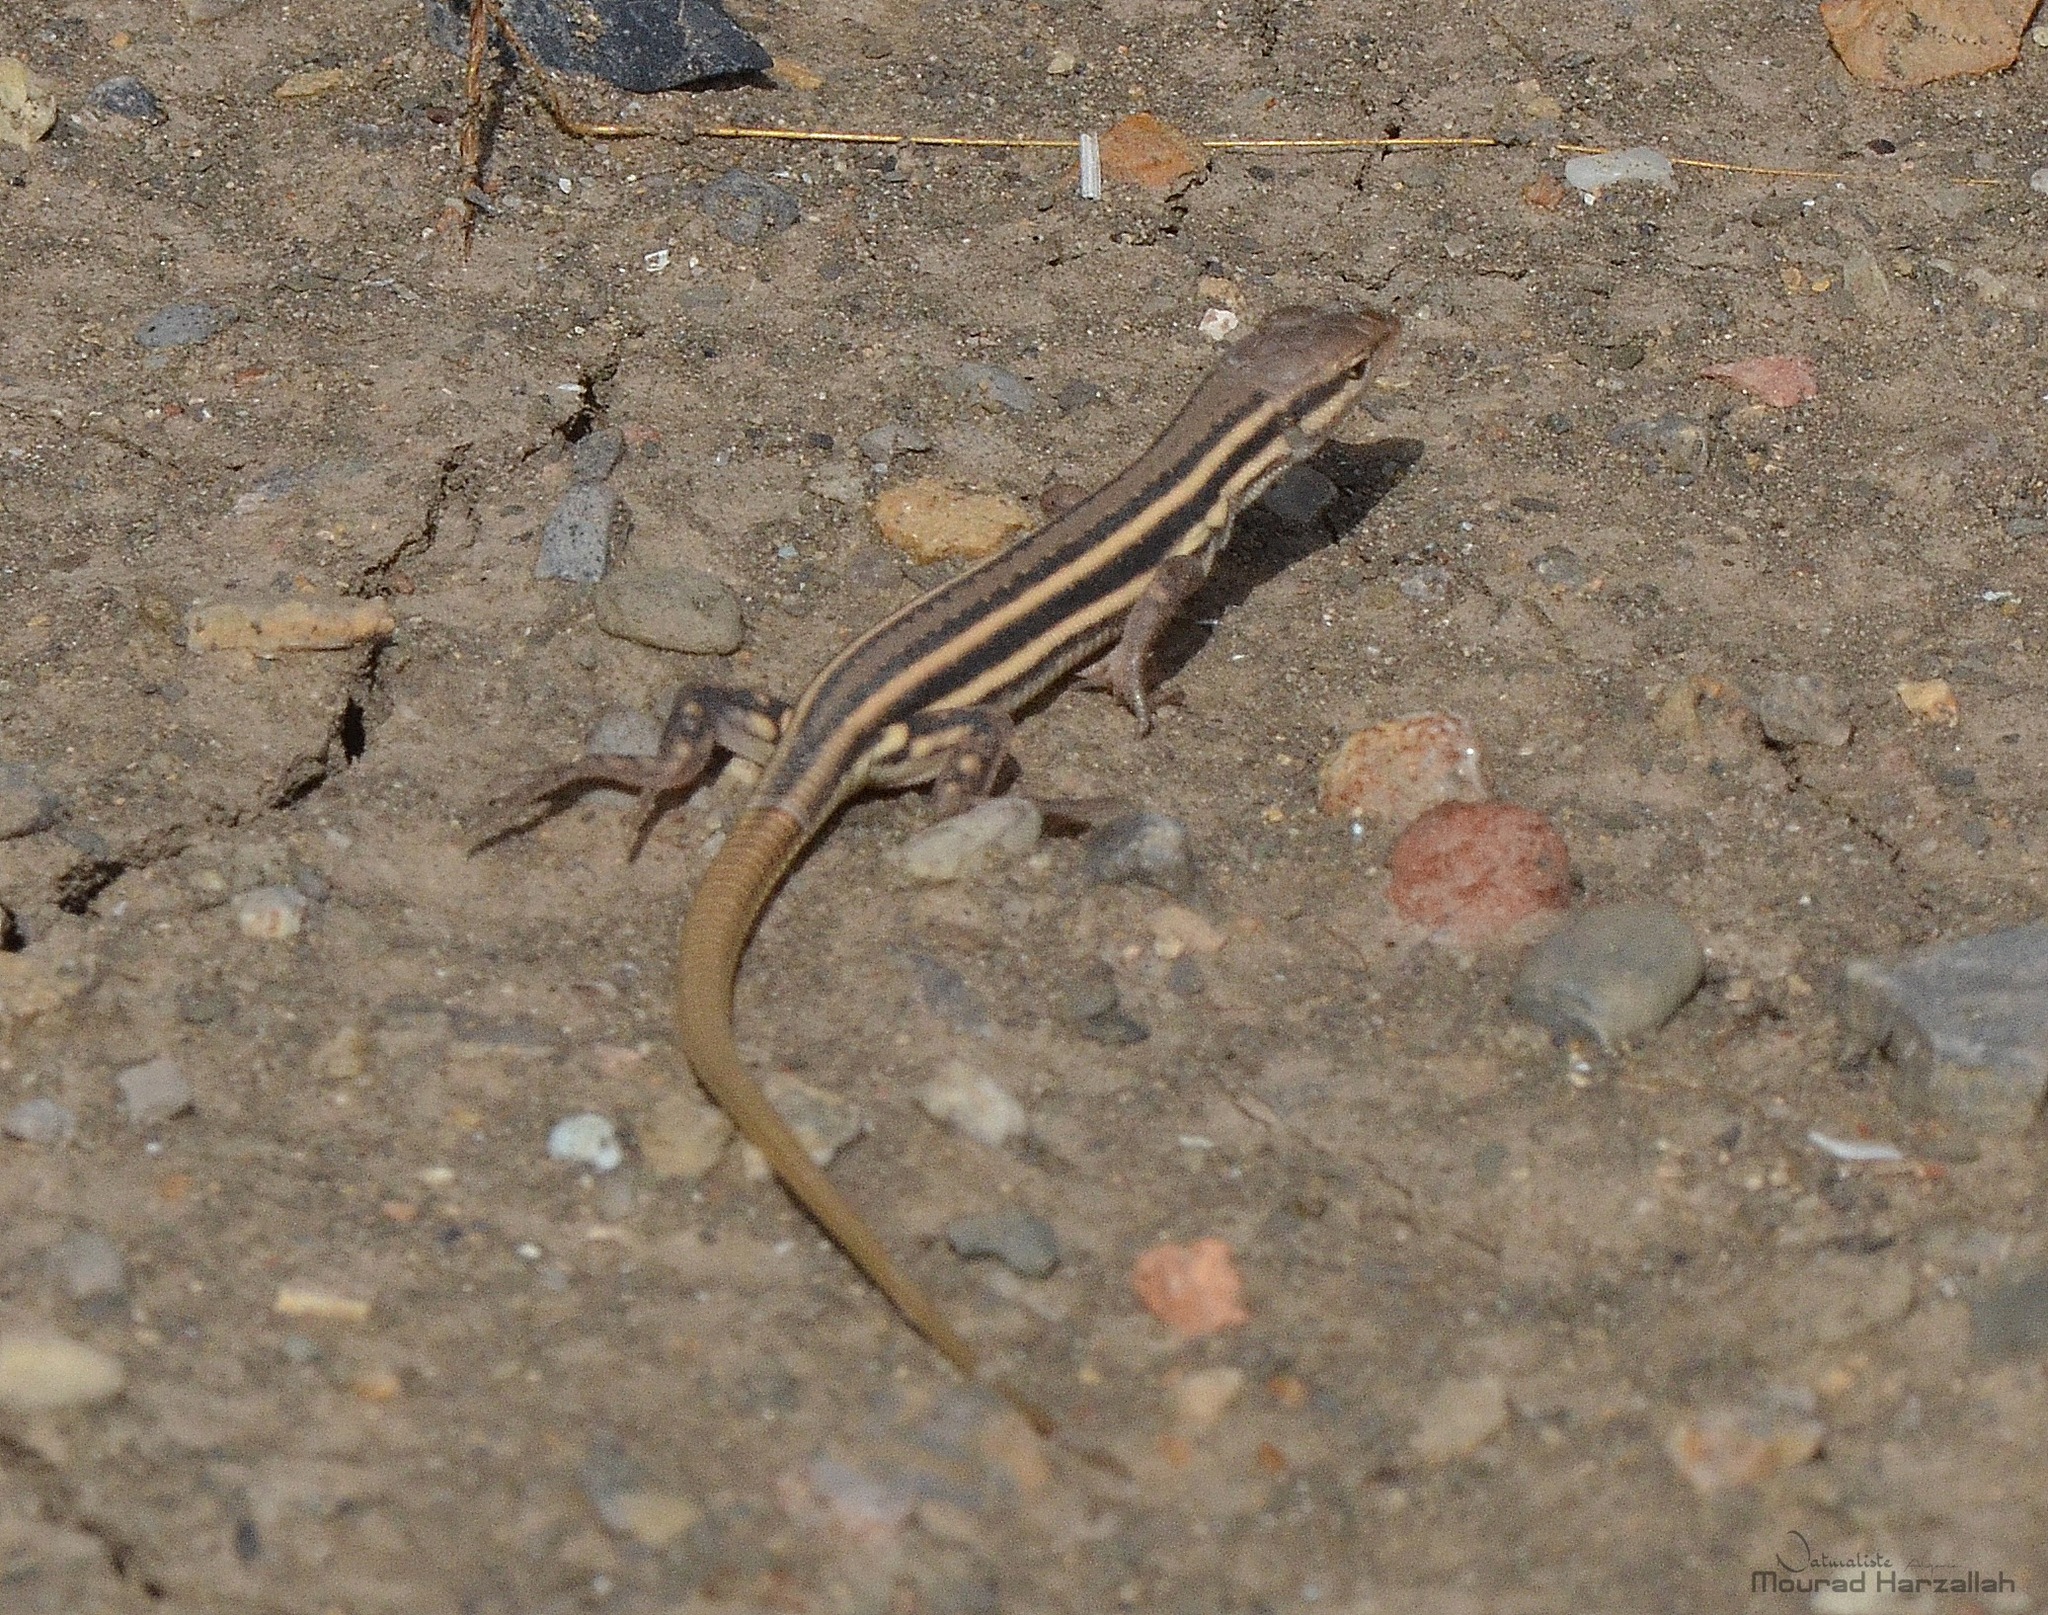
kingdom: Animalia
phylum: Chordata
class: Squamata
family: Lacertidae
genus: Mesalina
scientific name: Mesalina olivieri
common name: Oliver's desert racer
